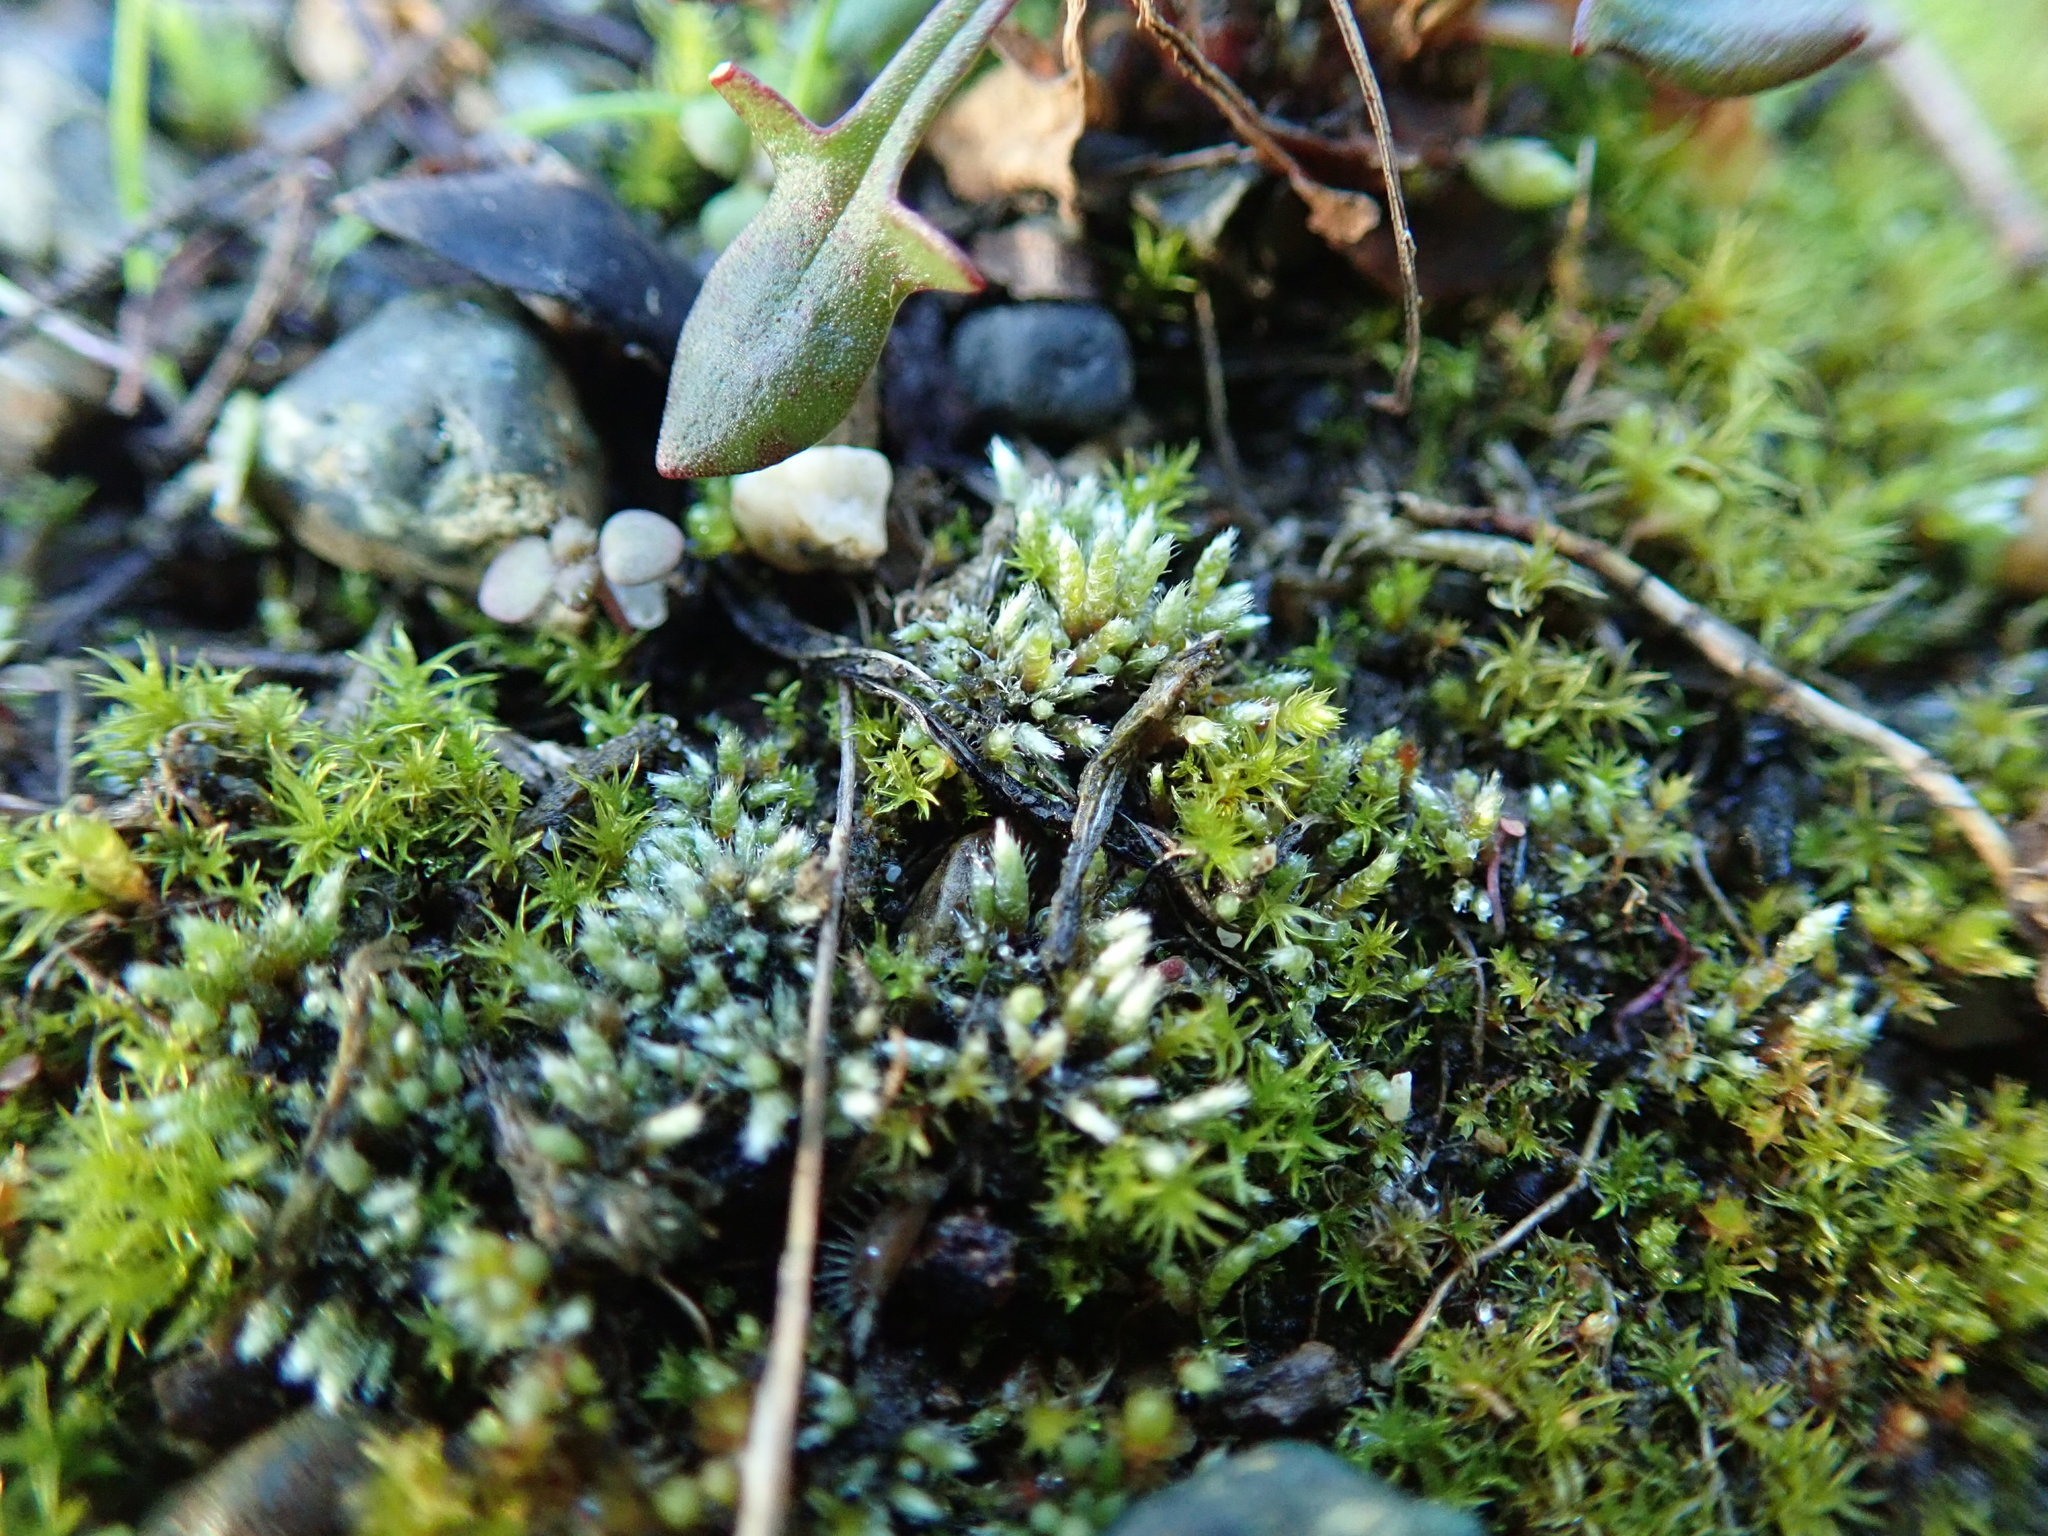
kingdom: Plantae
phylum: Bryophyta
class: Bryopsida
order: Bryales
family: Bryaceae
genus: Bryum
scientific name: Bryum argenteum
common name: Silver-moss
